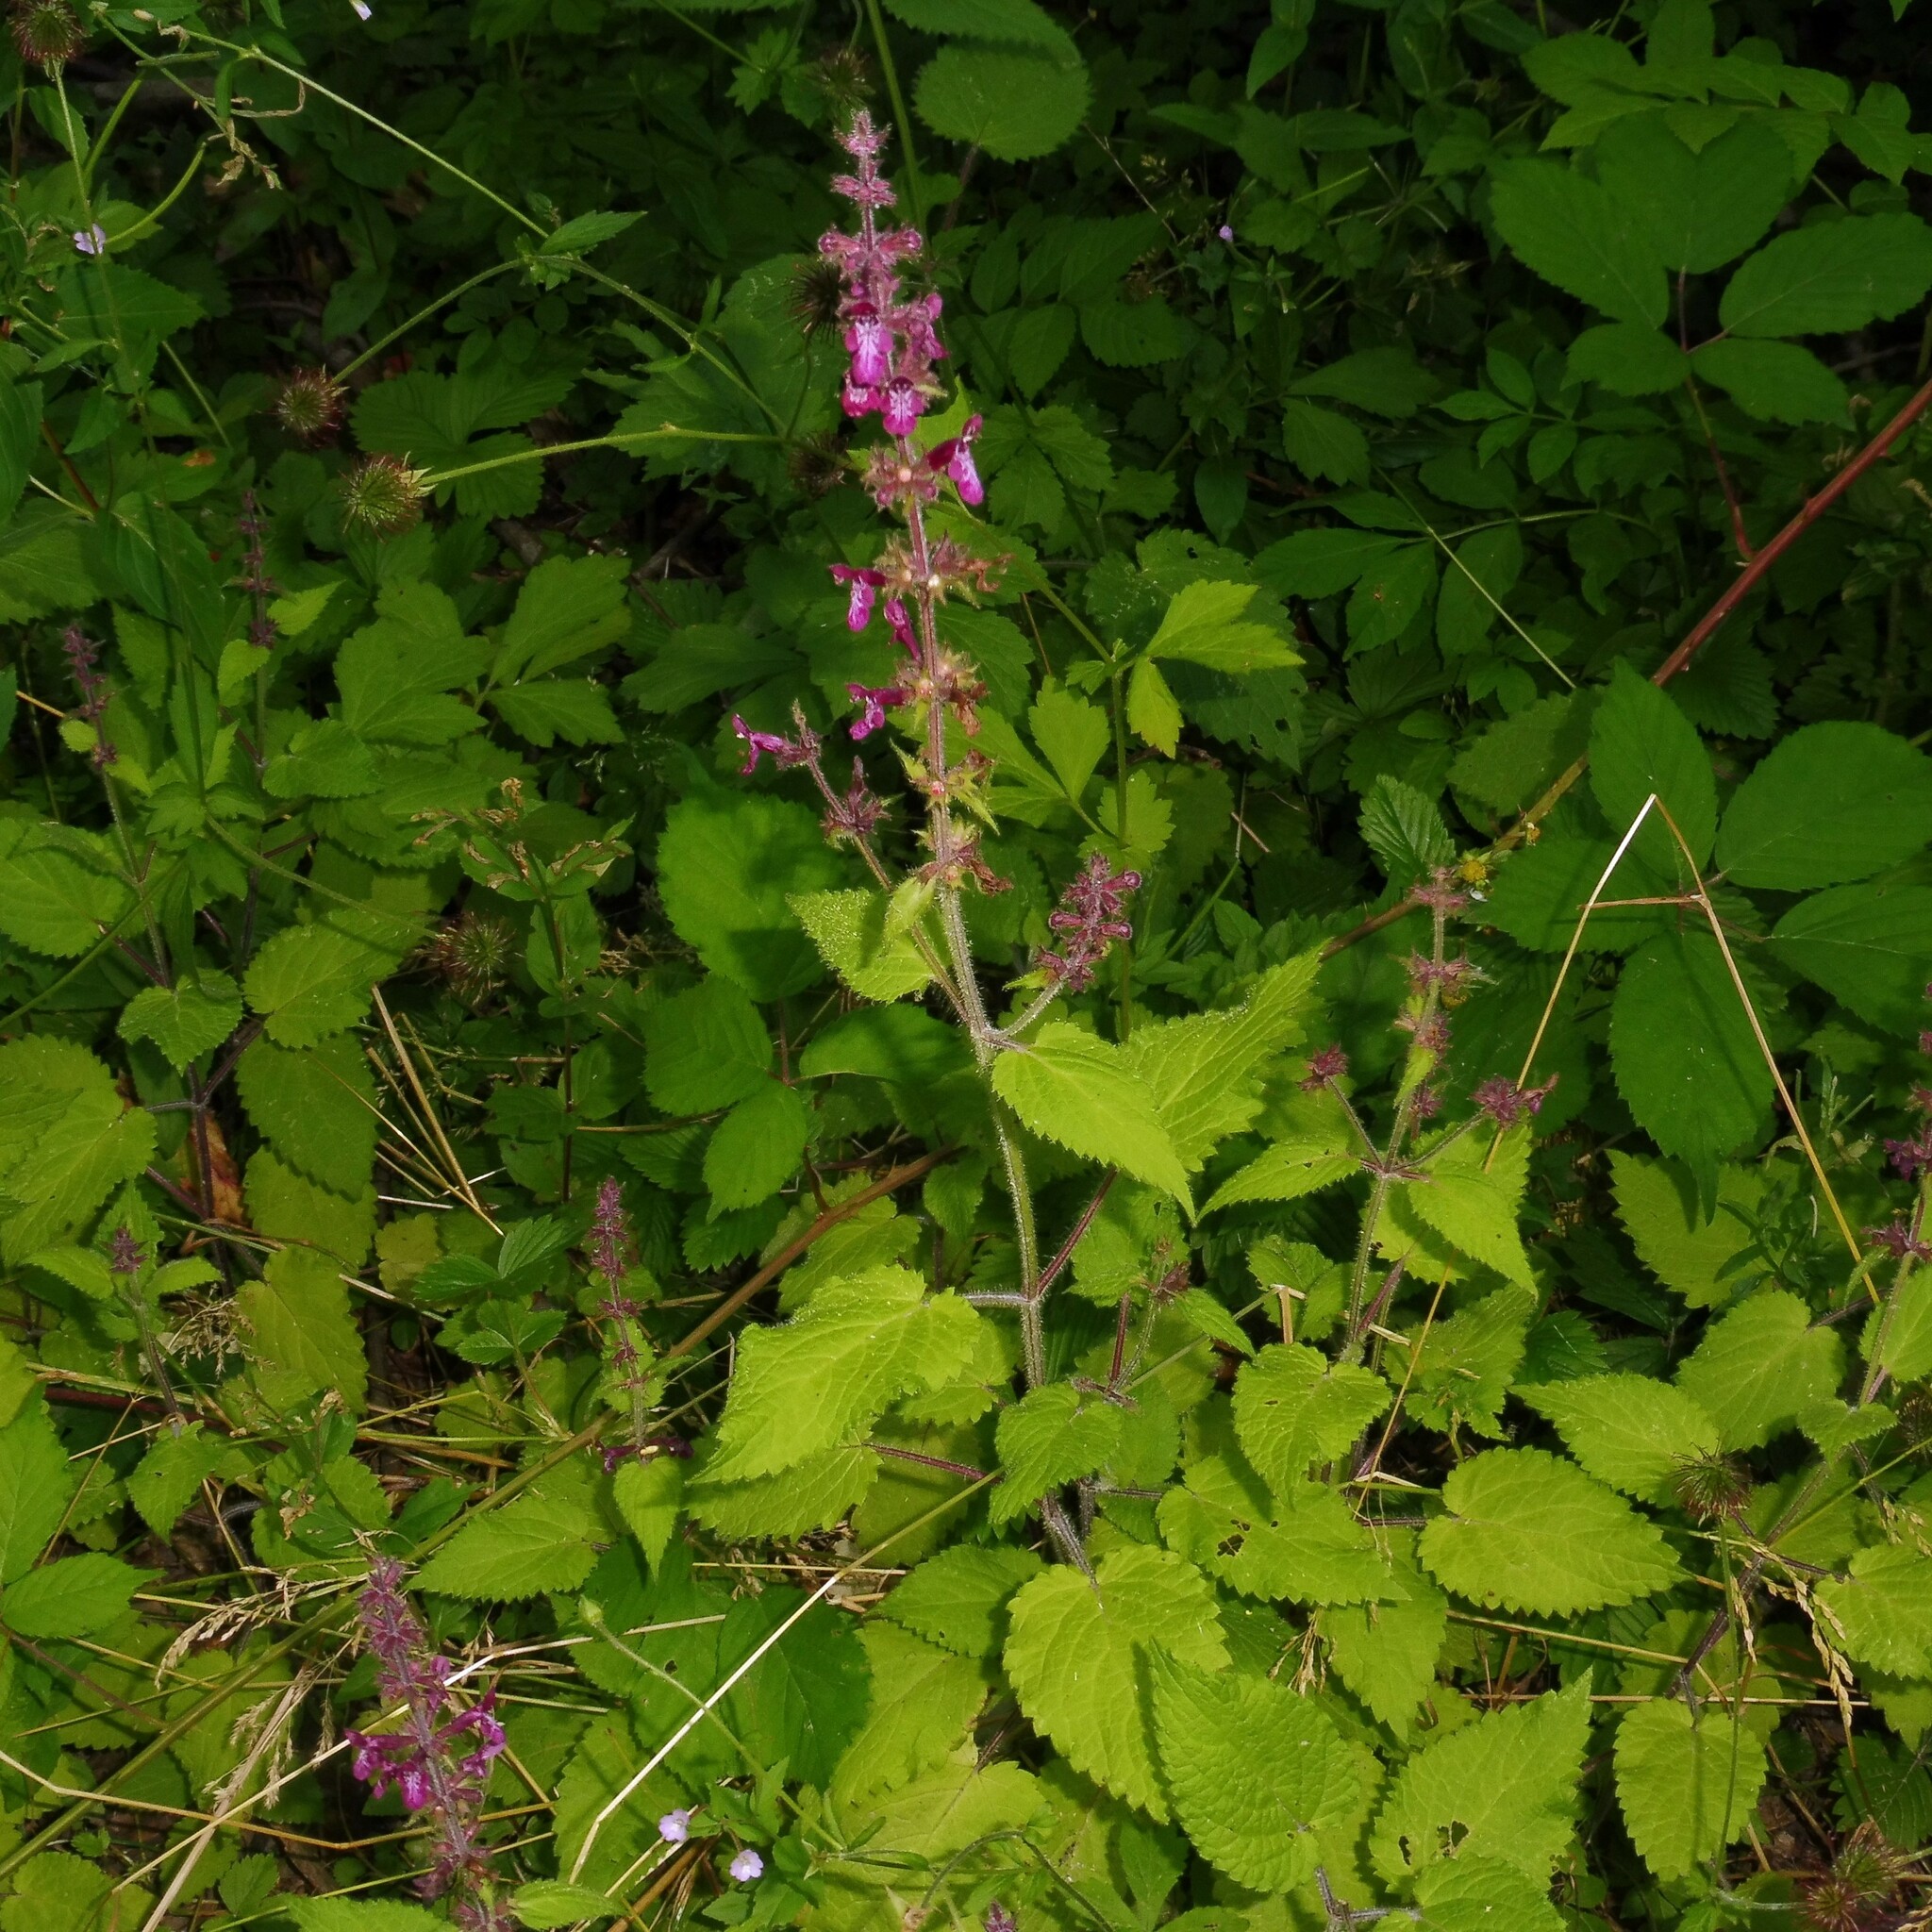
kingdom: Plantae
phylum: Tracheophyta
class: Magnoliopsida
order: Lamiales
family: Lamiaceae
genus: Stachys
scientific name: Stachys sylvatica
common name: Hedge woundwort
